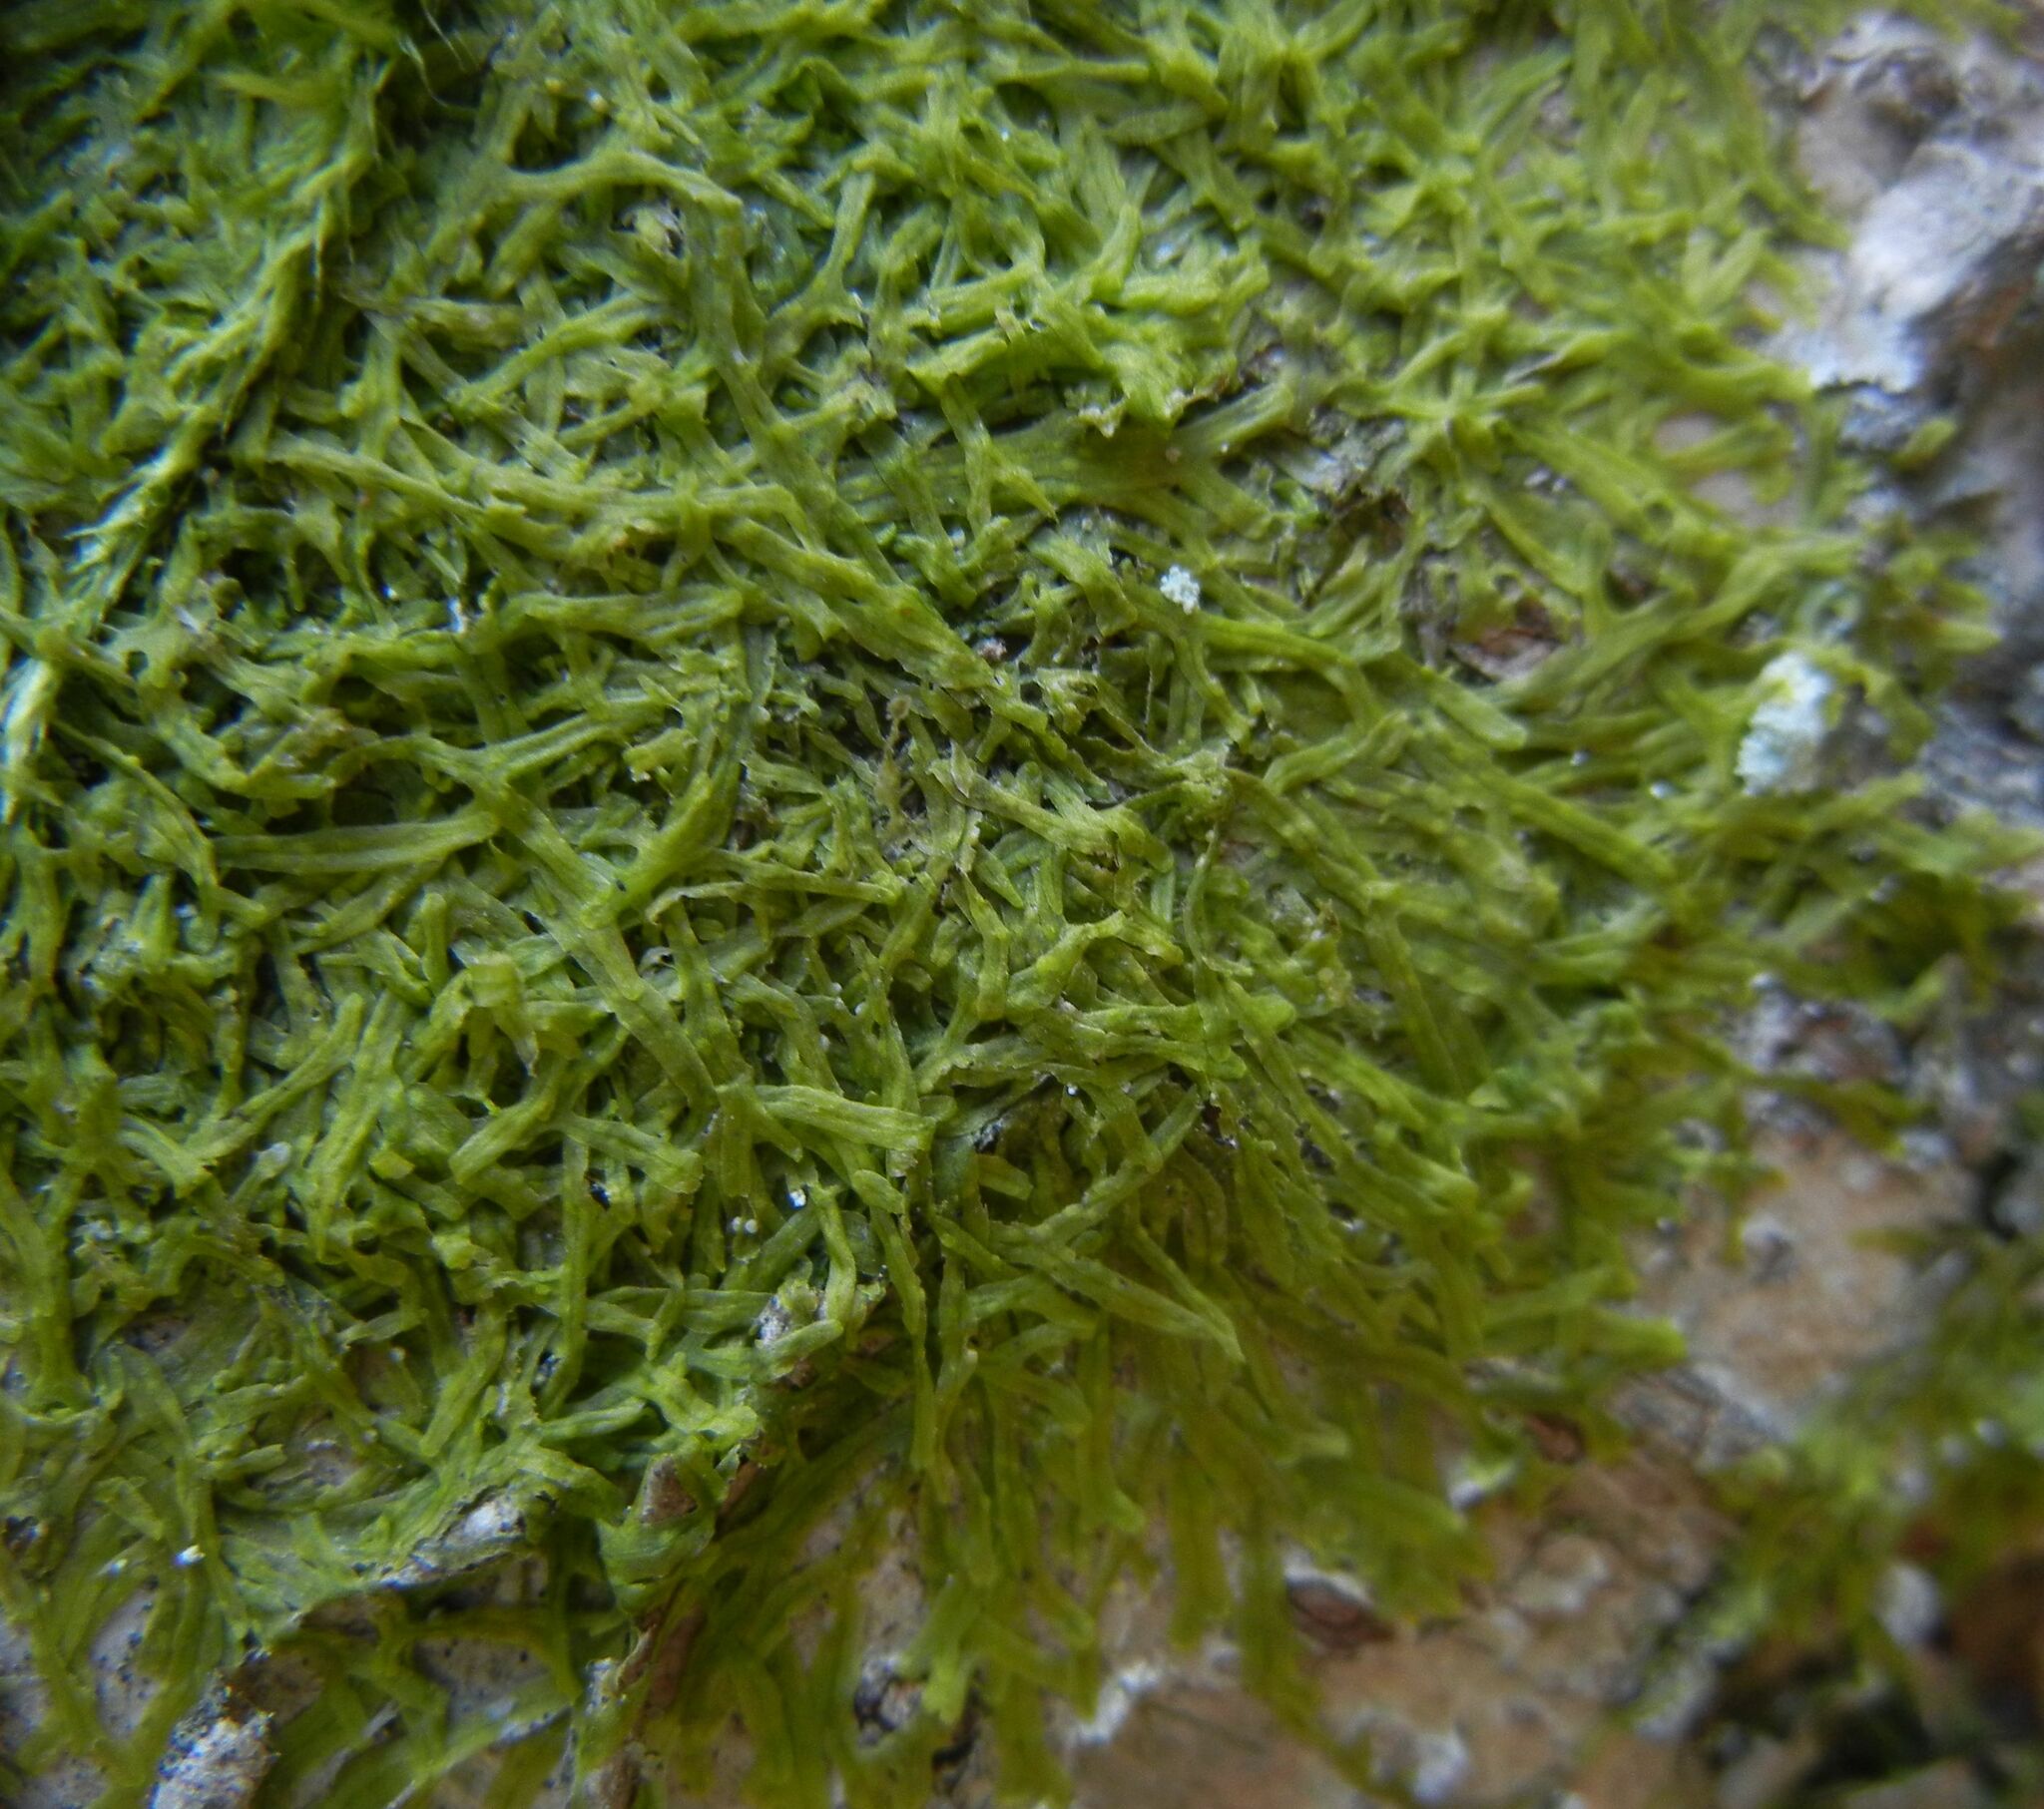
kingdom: Plantae
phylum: Marchantiophyta
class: Jungermanniopsida
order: Metzgeriales
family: Metzgeriaceae
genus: Metzgeria
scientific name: Metzgeria furcata
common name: Forked veilwort
